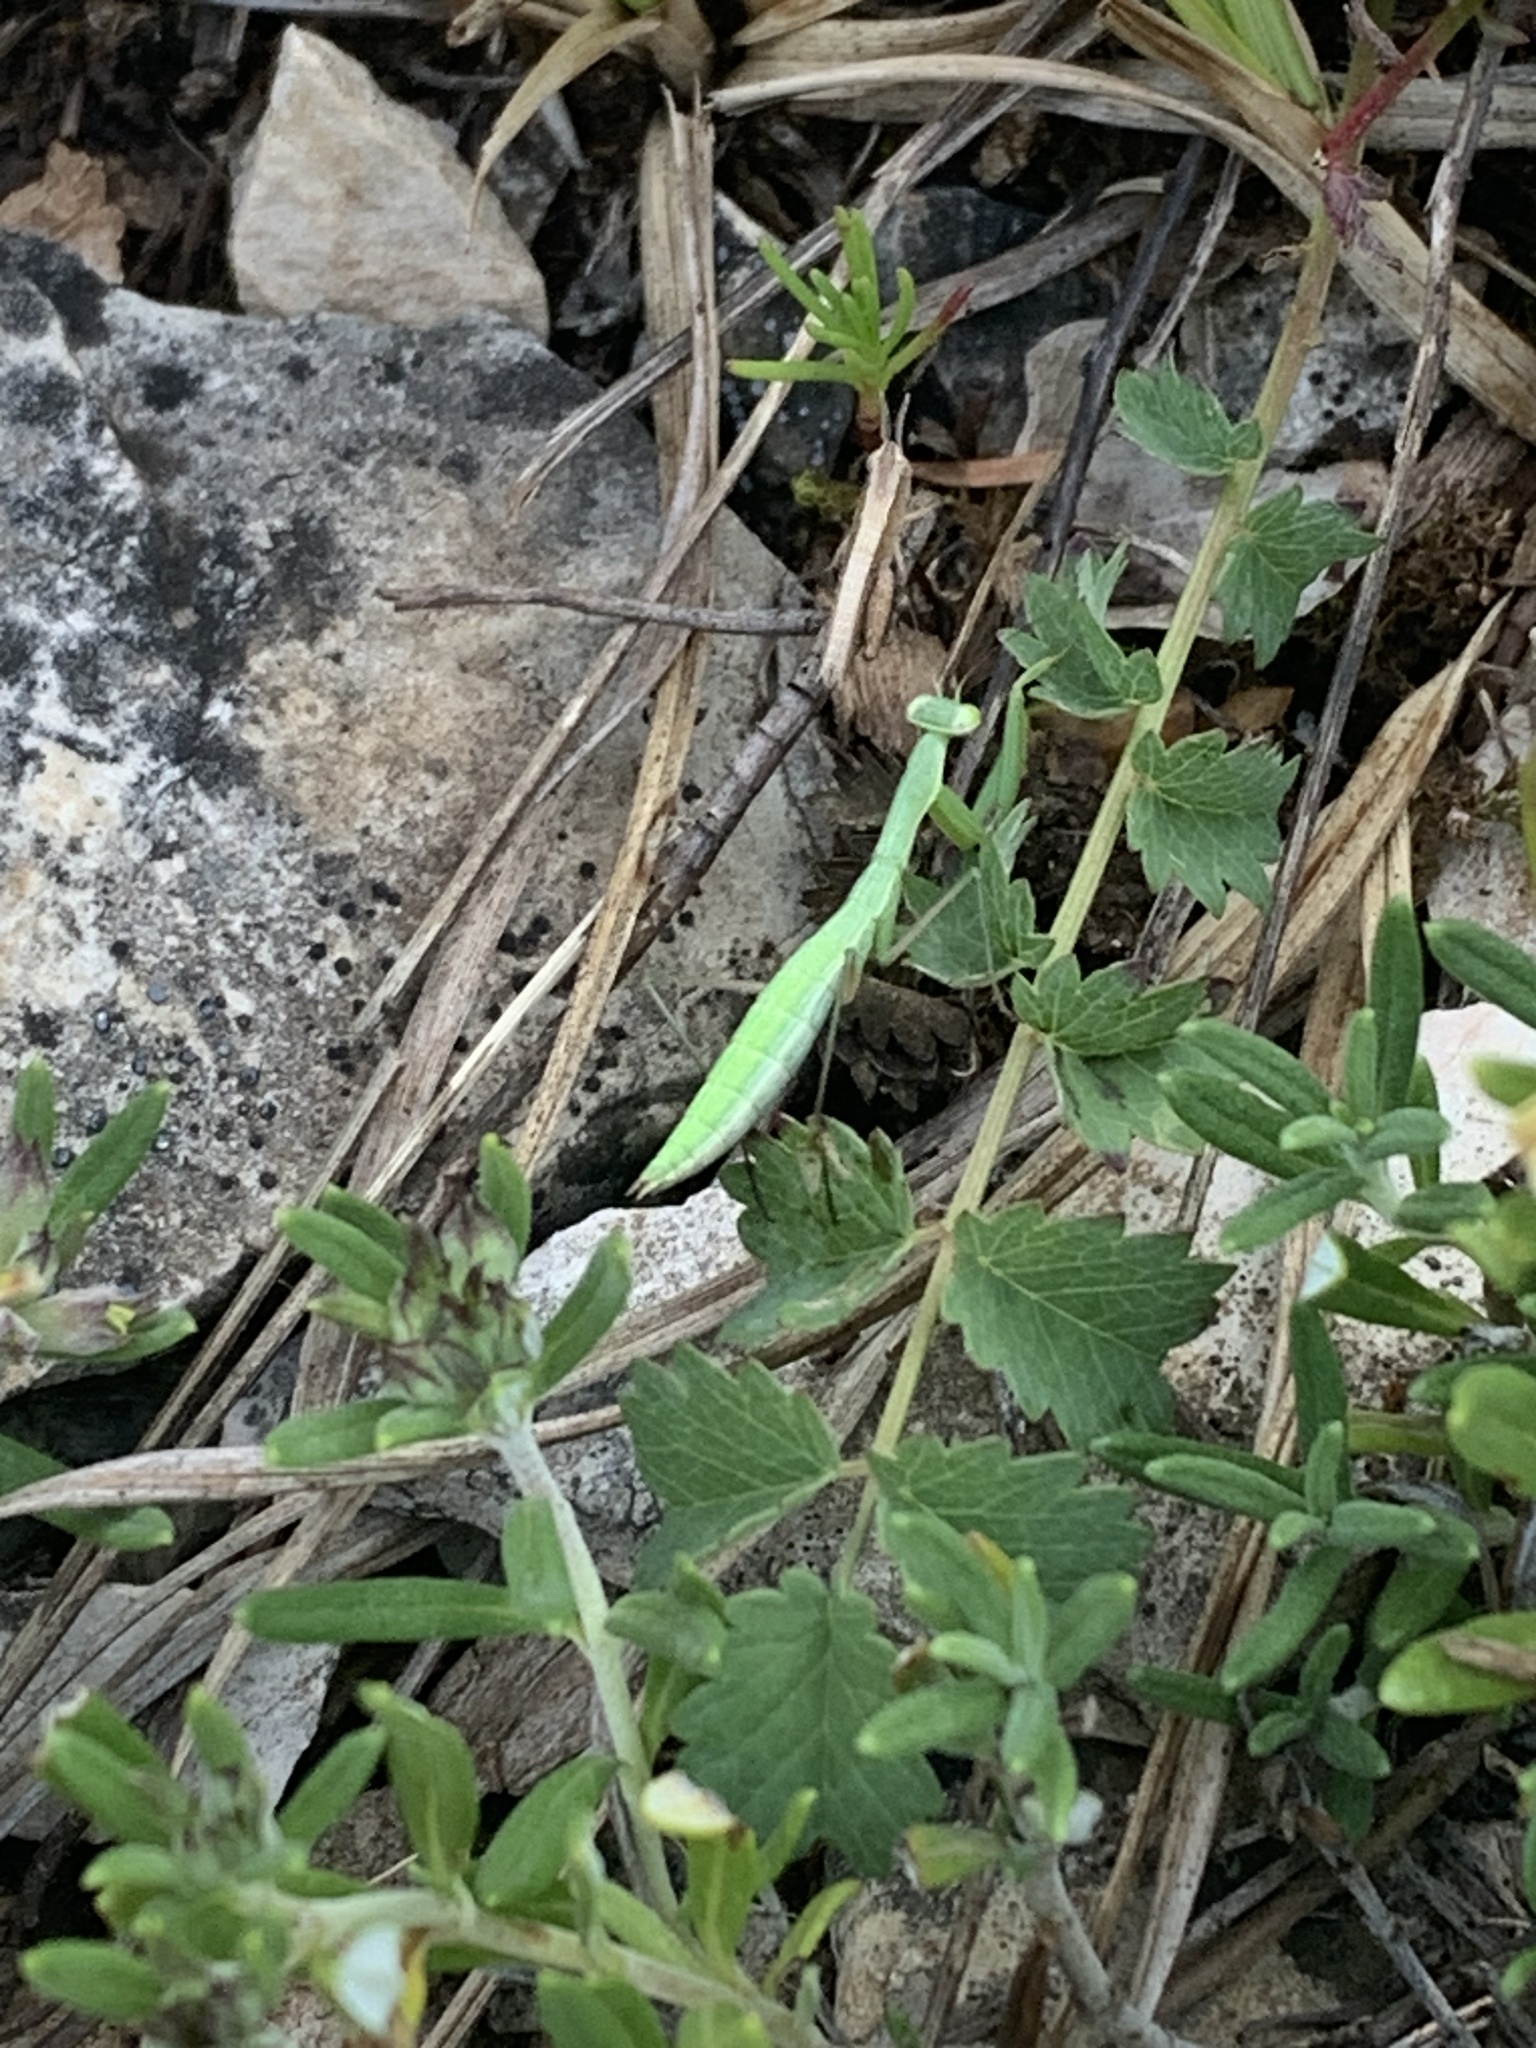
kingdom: Animalia
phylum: Arthropoda
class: Insecta
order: Mantodea
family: Mantidae
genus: Mantis
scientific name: Mantis religiosa
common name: Praying mantis
